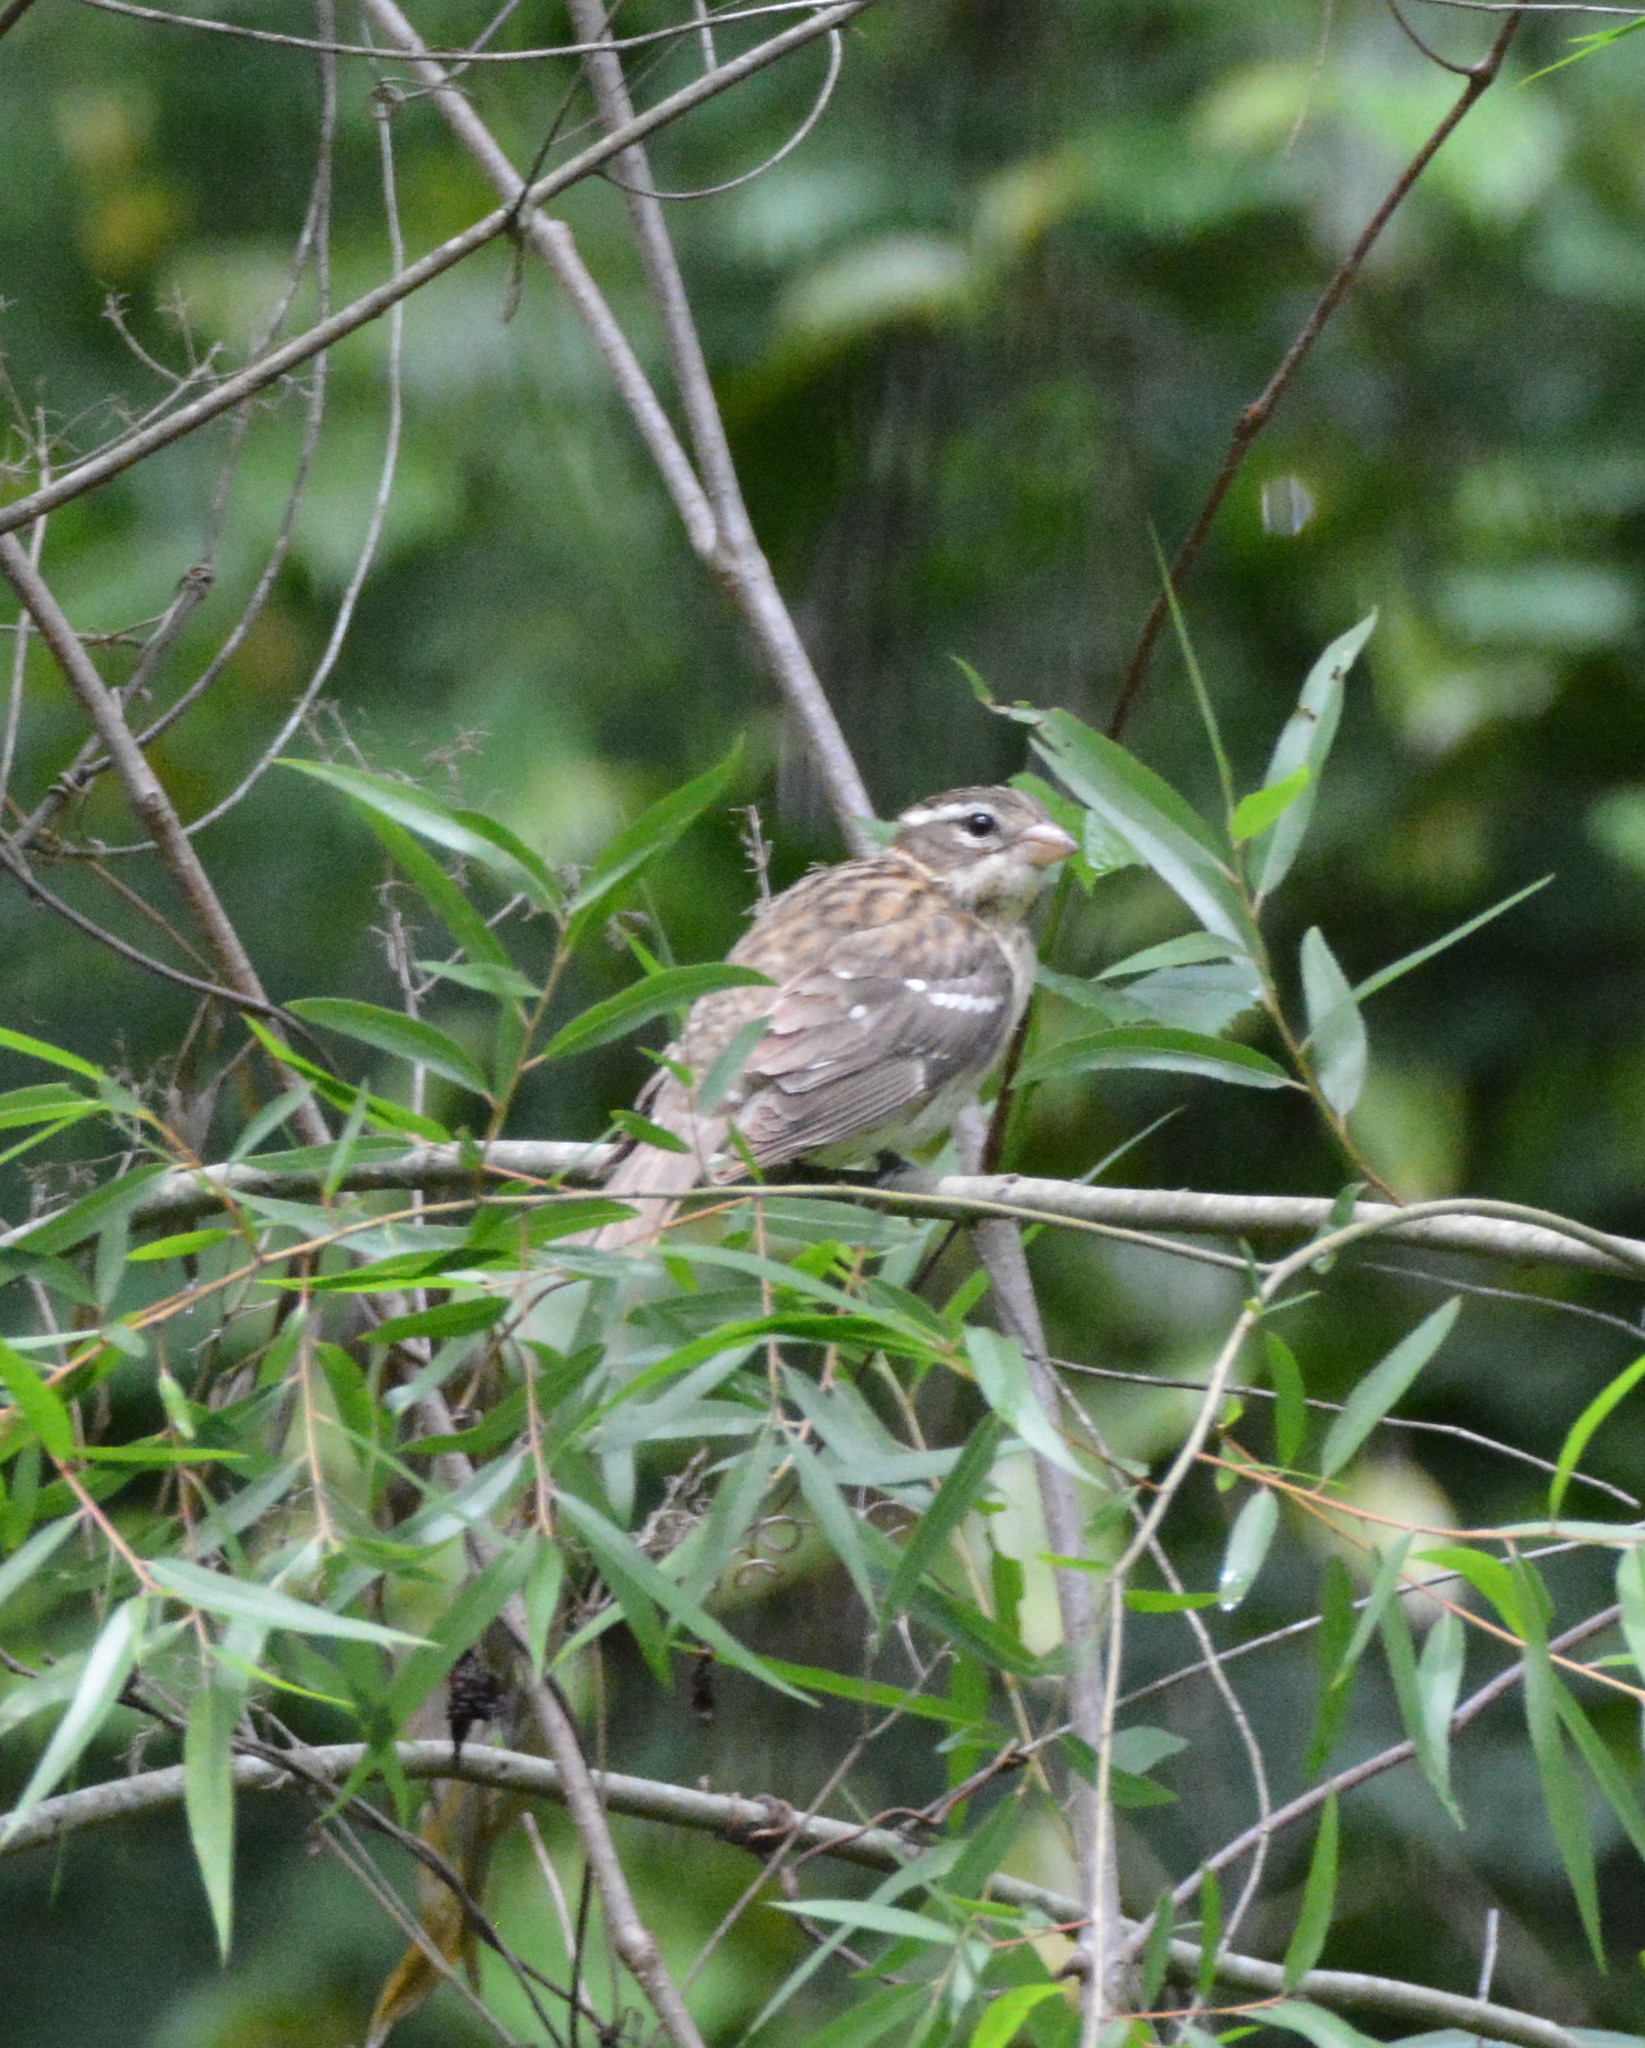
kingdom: Animalia
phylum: Chordata
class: Aves
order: Passeriformes
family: Cardinalidae
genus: Pheucticus
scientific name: Pheucticus ludovicianus
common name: Rose-breasted grosbeak
